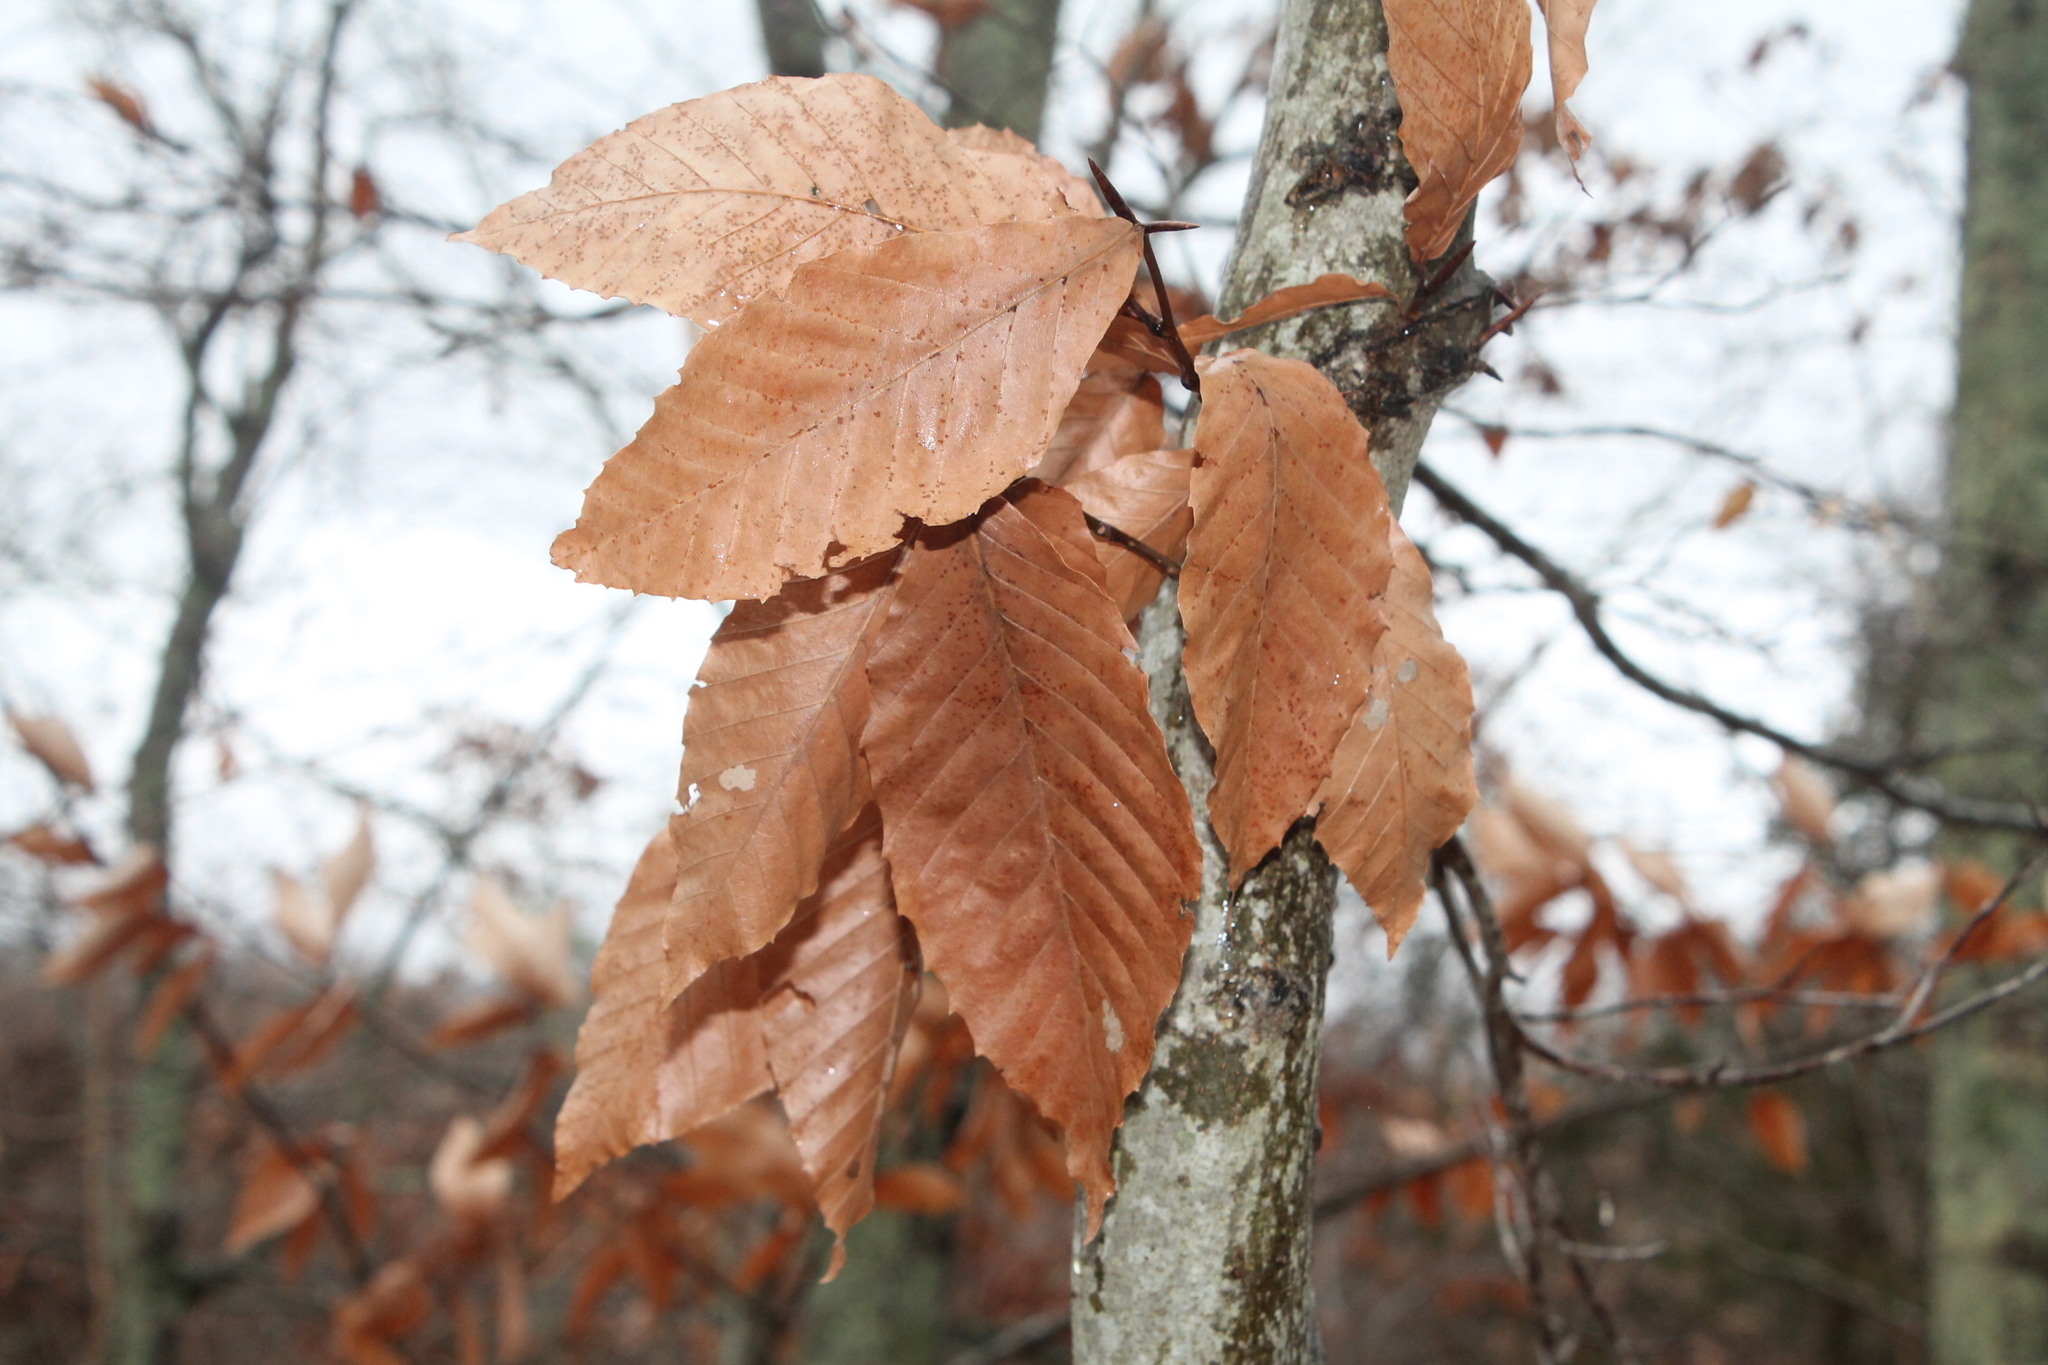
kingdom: Plantae
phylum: Tracheophyta
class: Magnoliopsida
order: Fagales
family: Fagaceae
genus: Fagus
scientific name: Fagus grandifolia
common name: American beech
